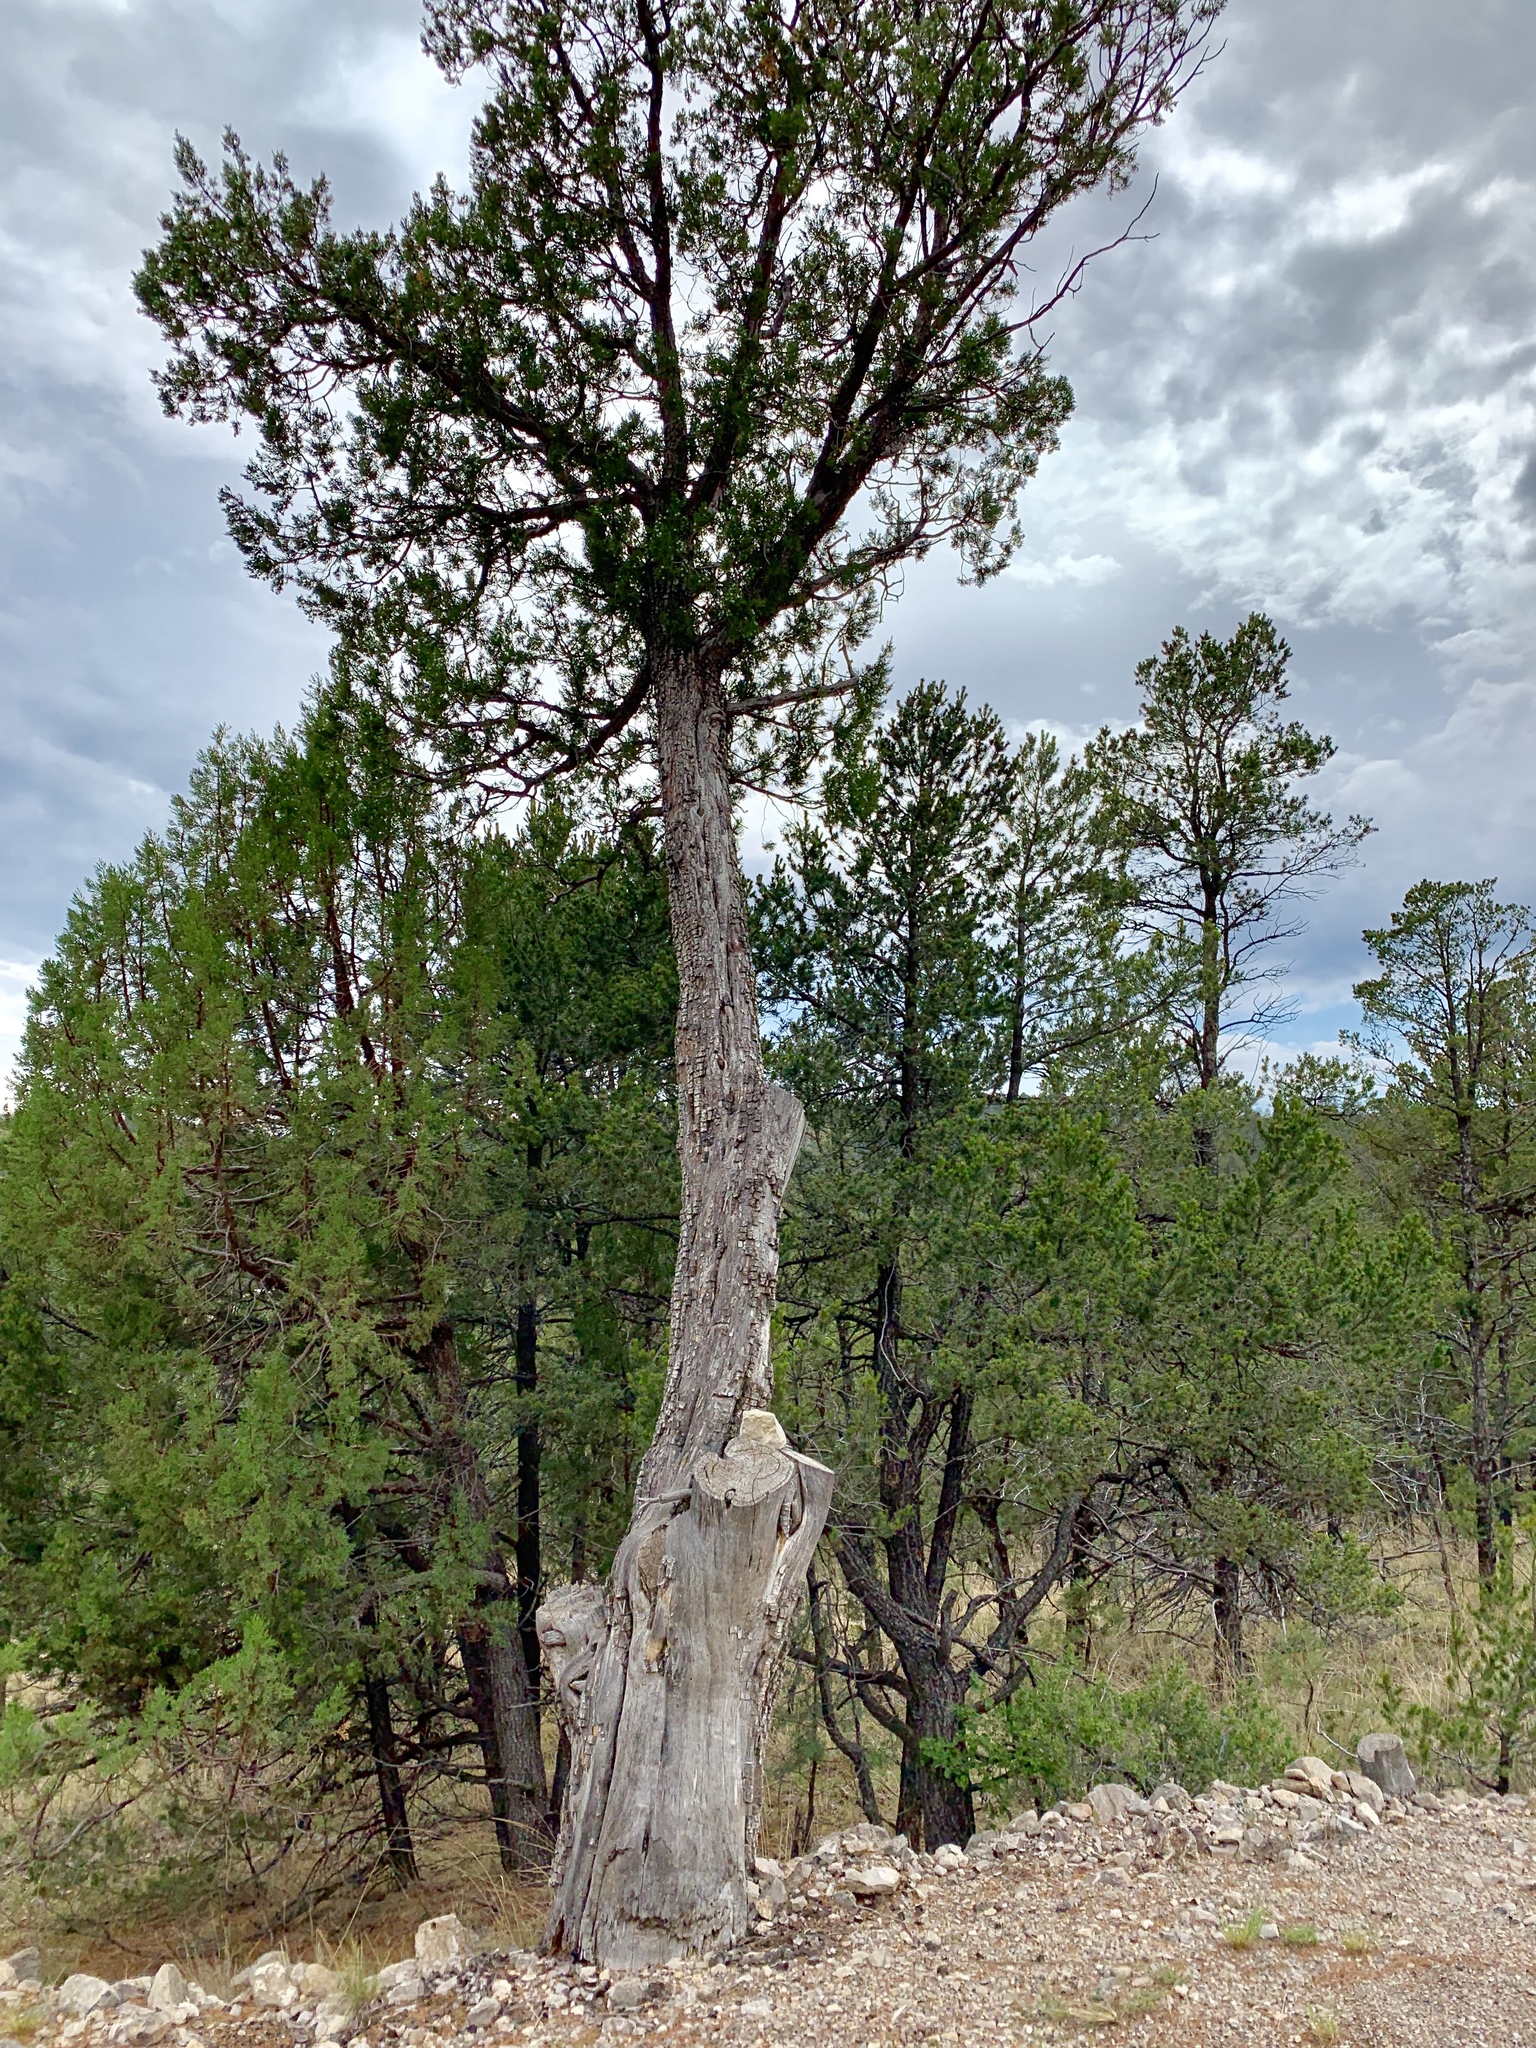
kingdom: Plantae
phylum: Tracheophyta
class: Pinopsida
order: Pinales
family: Cupressaceae
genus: Juniperus
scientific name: Juniperus deppeana
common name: Alligator juniper
